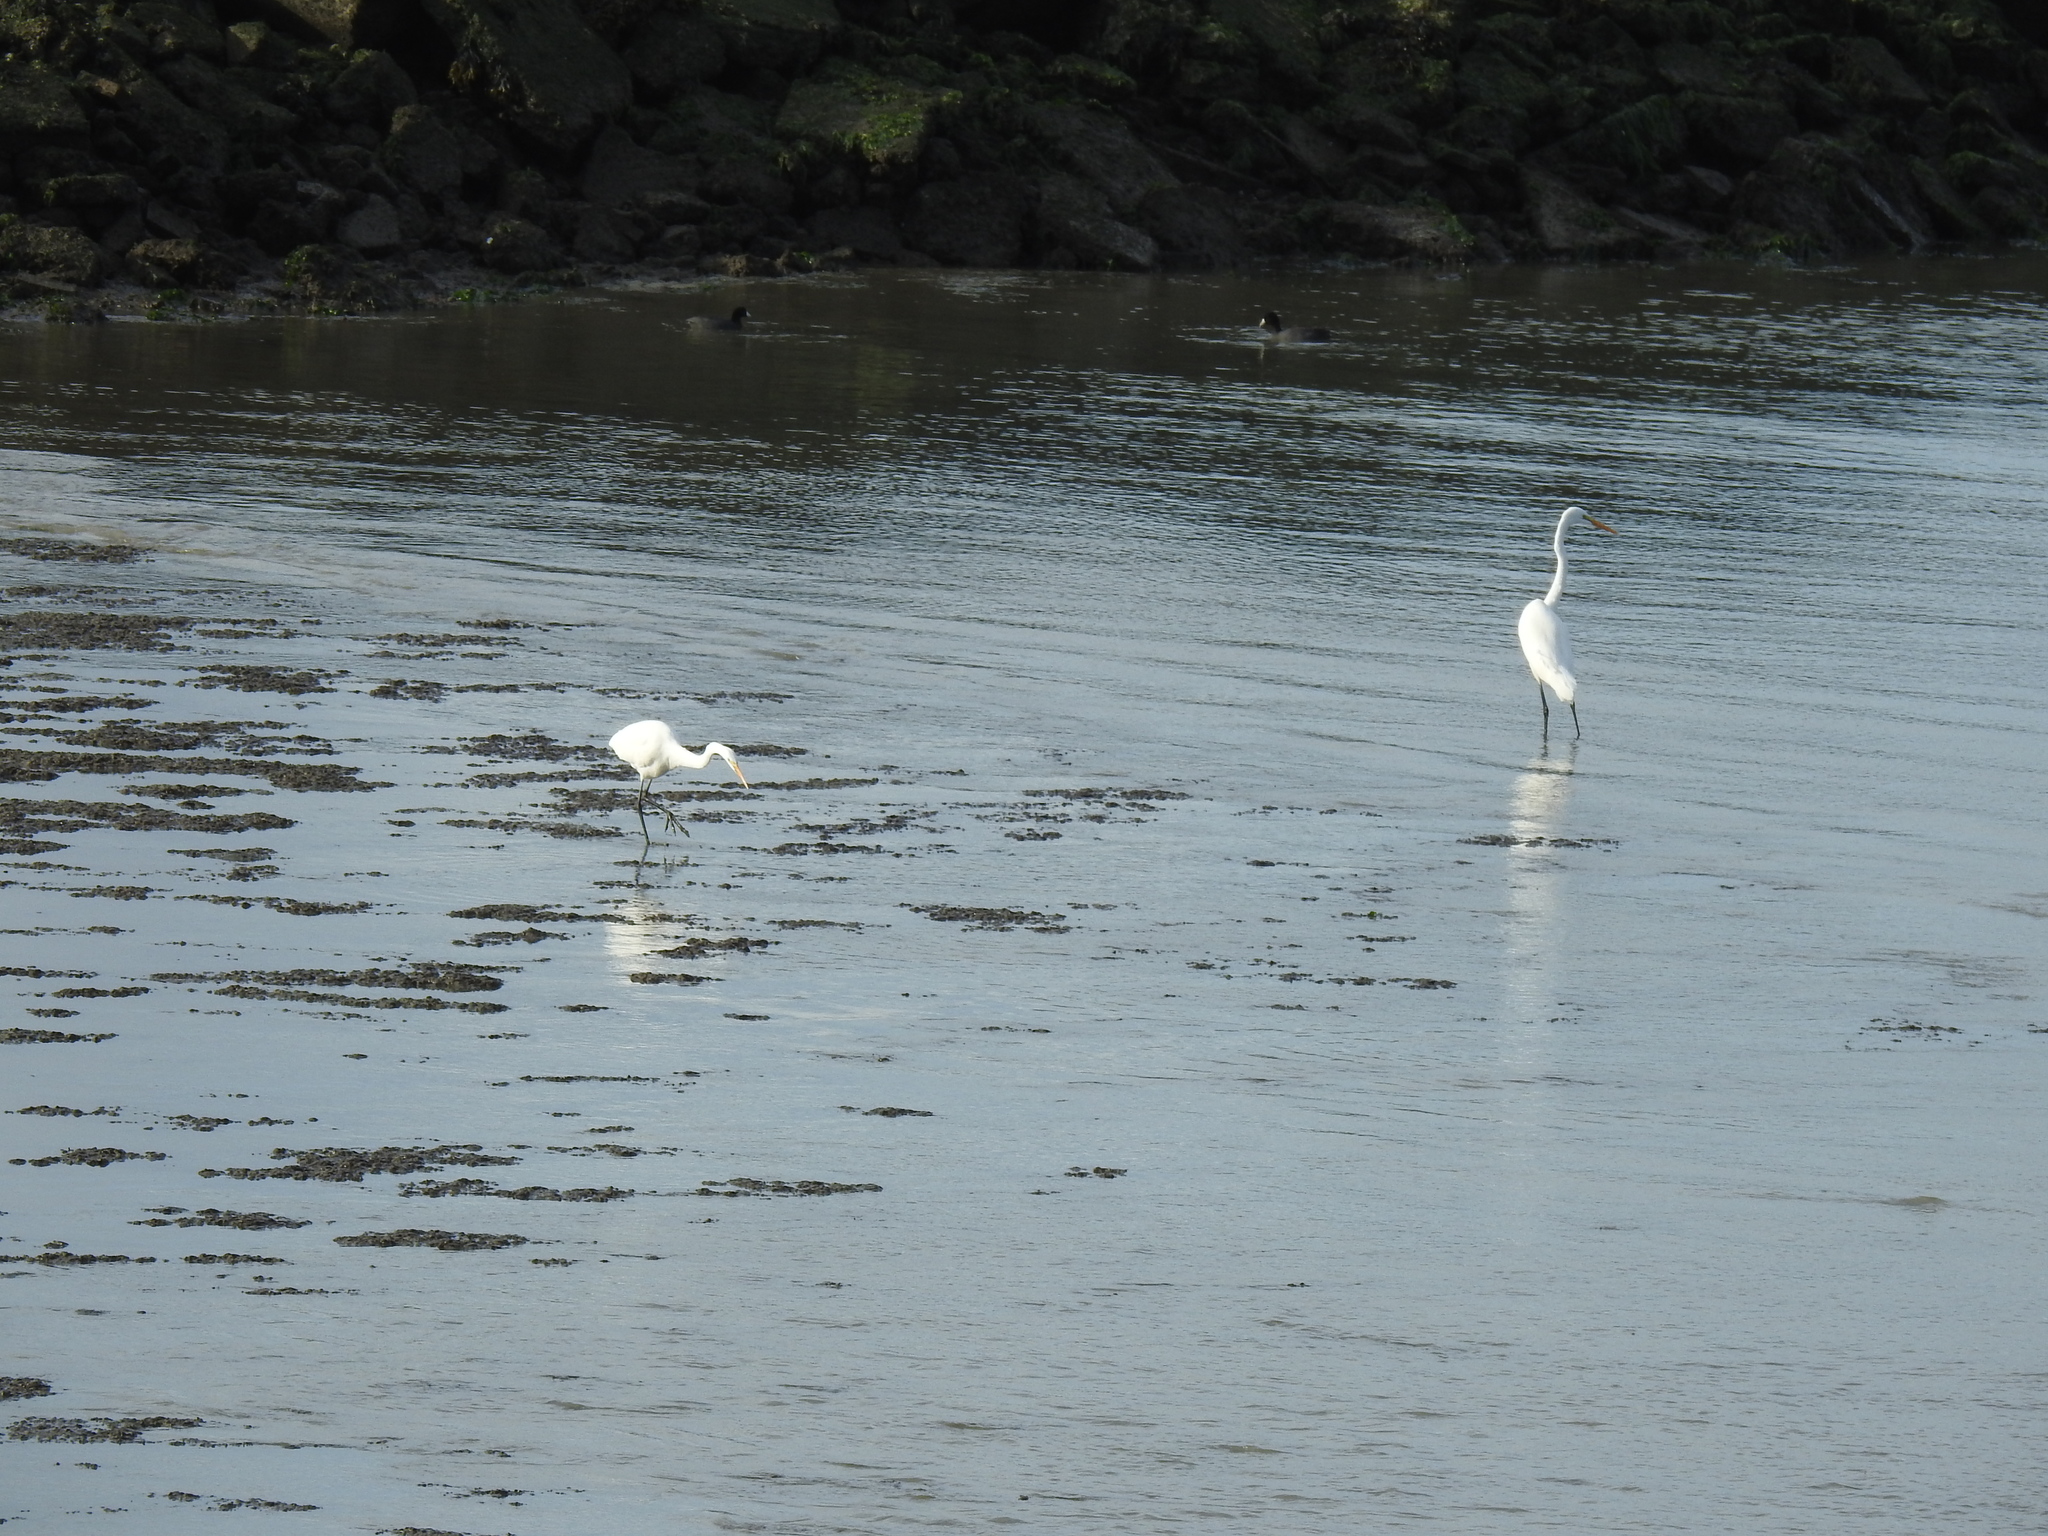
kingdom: Animalia
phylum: Chordata
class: Aves
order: Pelecaniformes
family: Ardeidae
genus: Ardea
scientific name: Ardea alba
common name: Great egret
